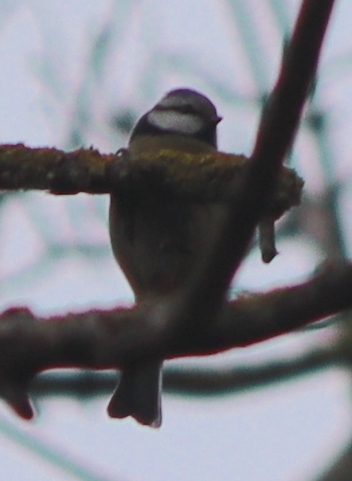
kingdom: Animalia
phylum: Chordata
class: Aves
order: Passeriformes
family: Paridae
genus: Cyanistes
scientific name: Cyanistes caeruleus
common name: Eurasian blue tit
